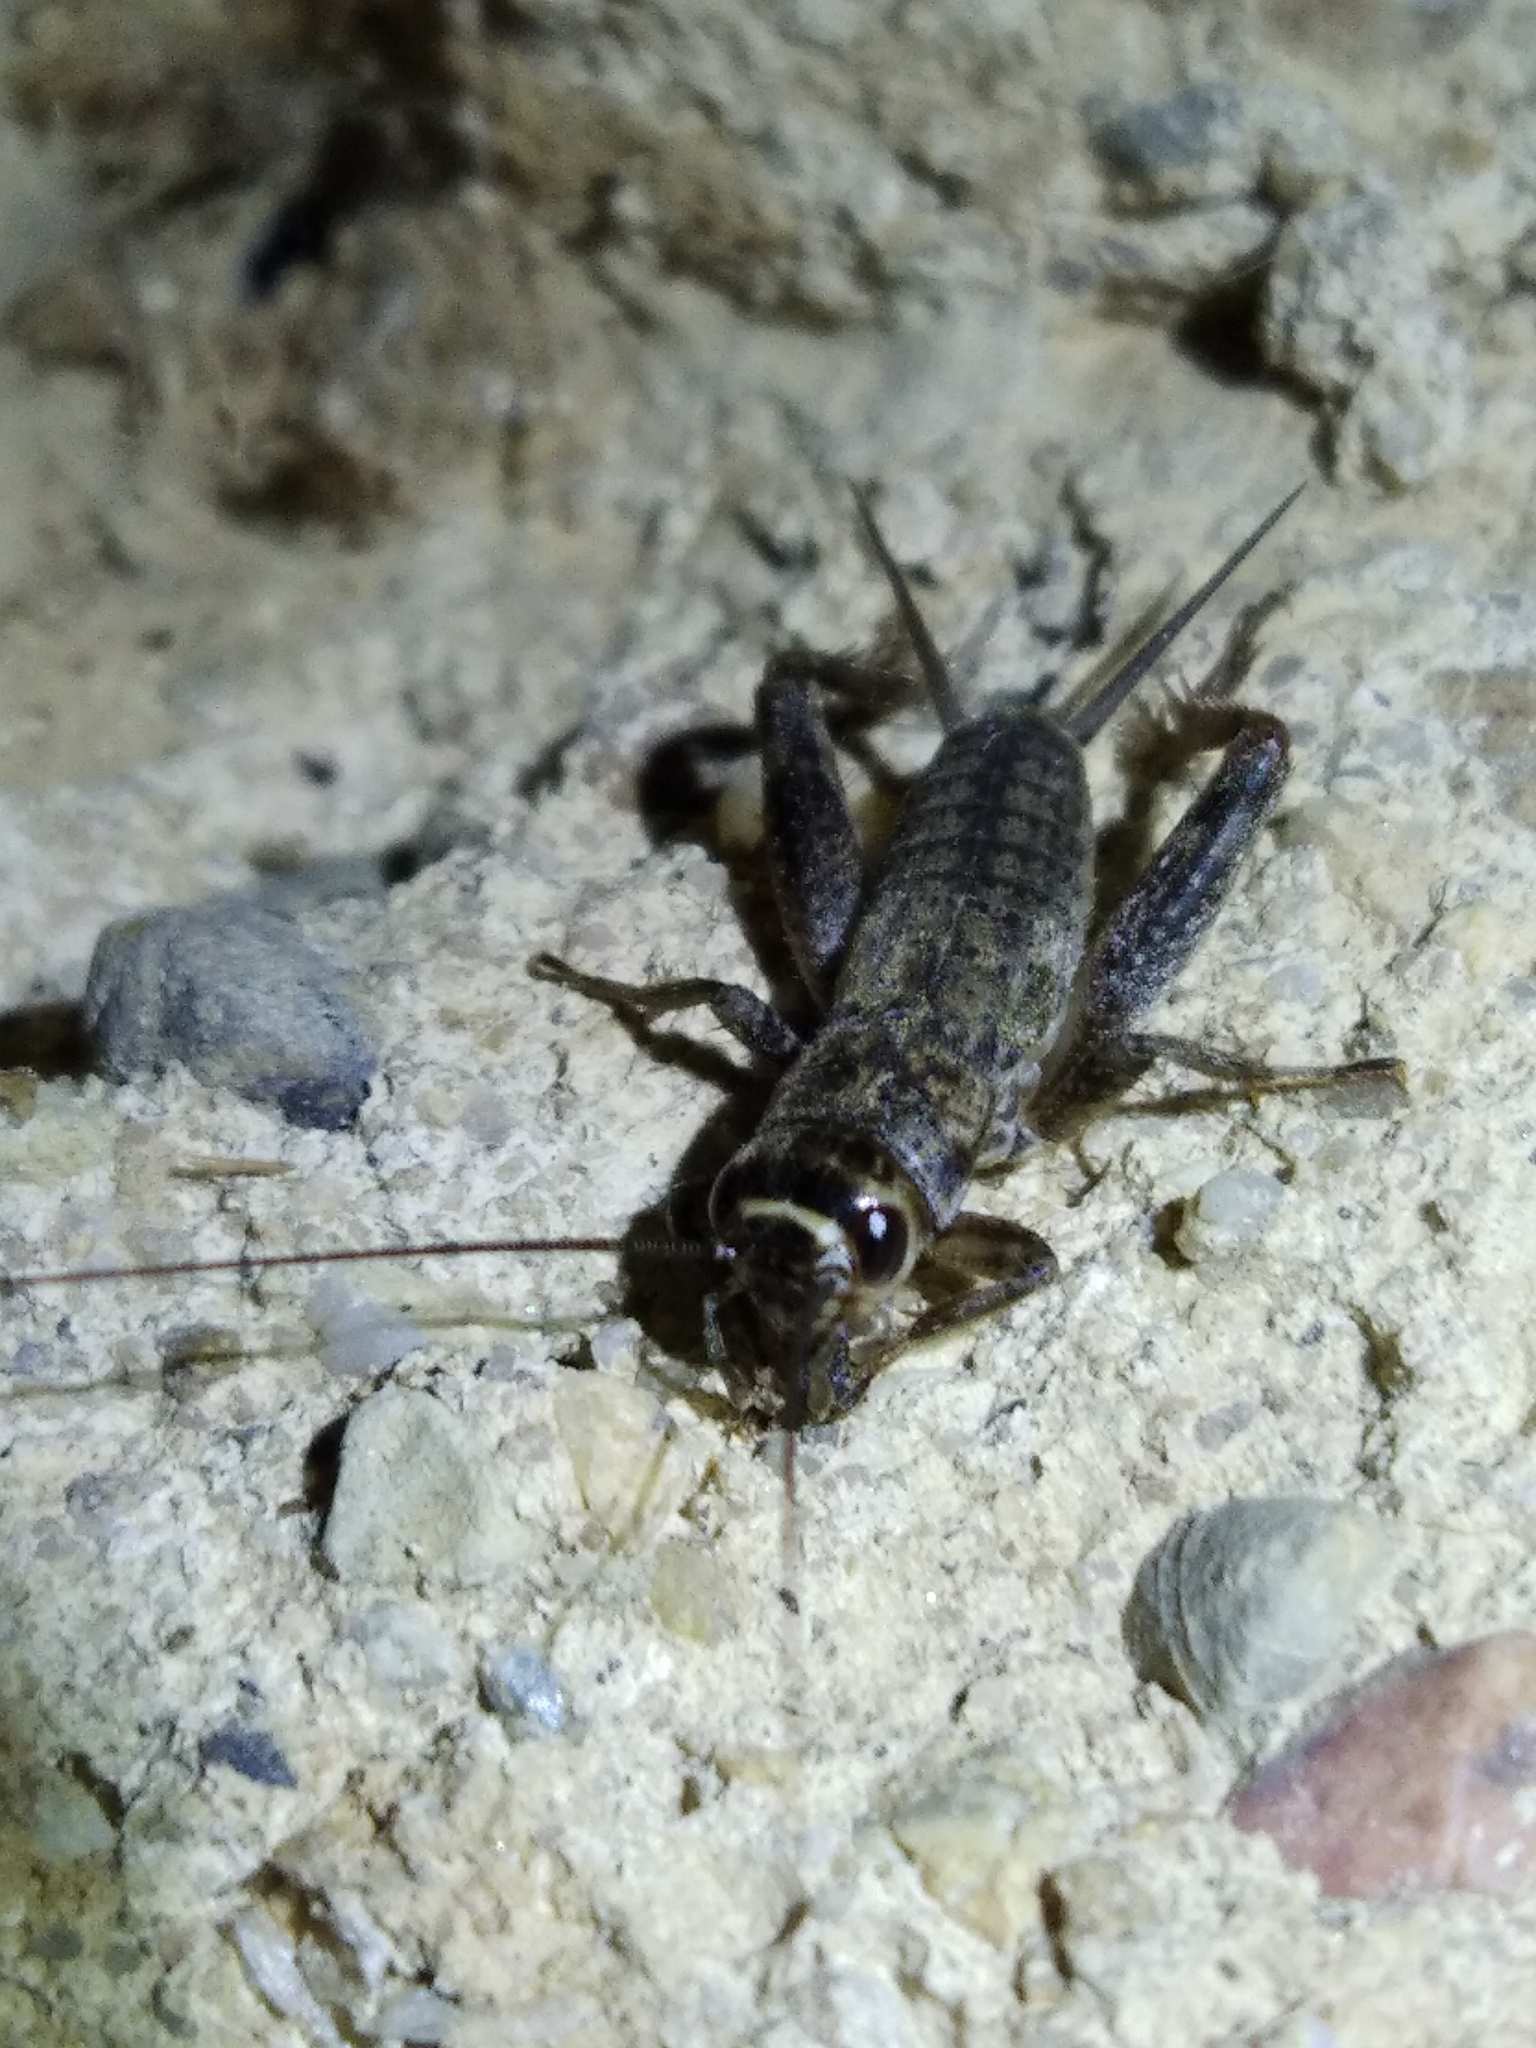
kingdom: Animalia
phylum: Arthropoda
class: Insecta
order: Orthoptera
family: Gryllidae
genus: Eumodicogryllus
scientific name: Eumodicogryllus bordigalensis
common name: Bordeaux cricket
